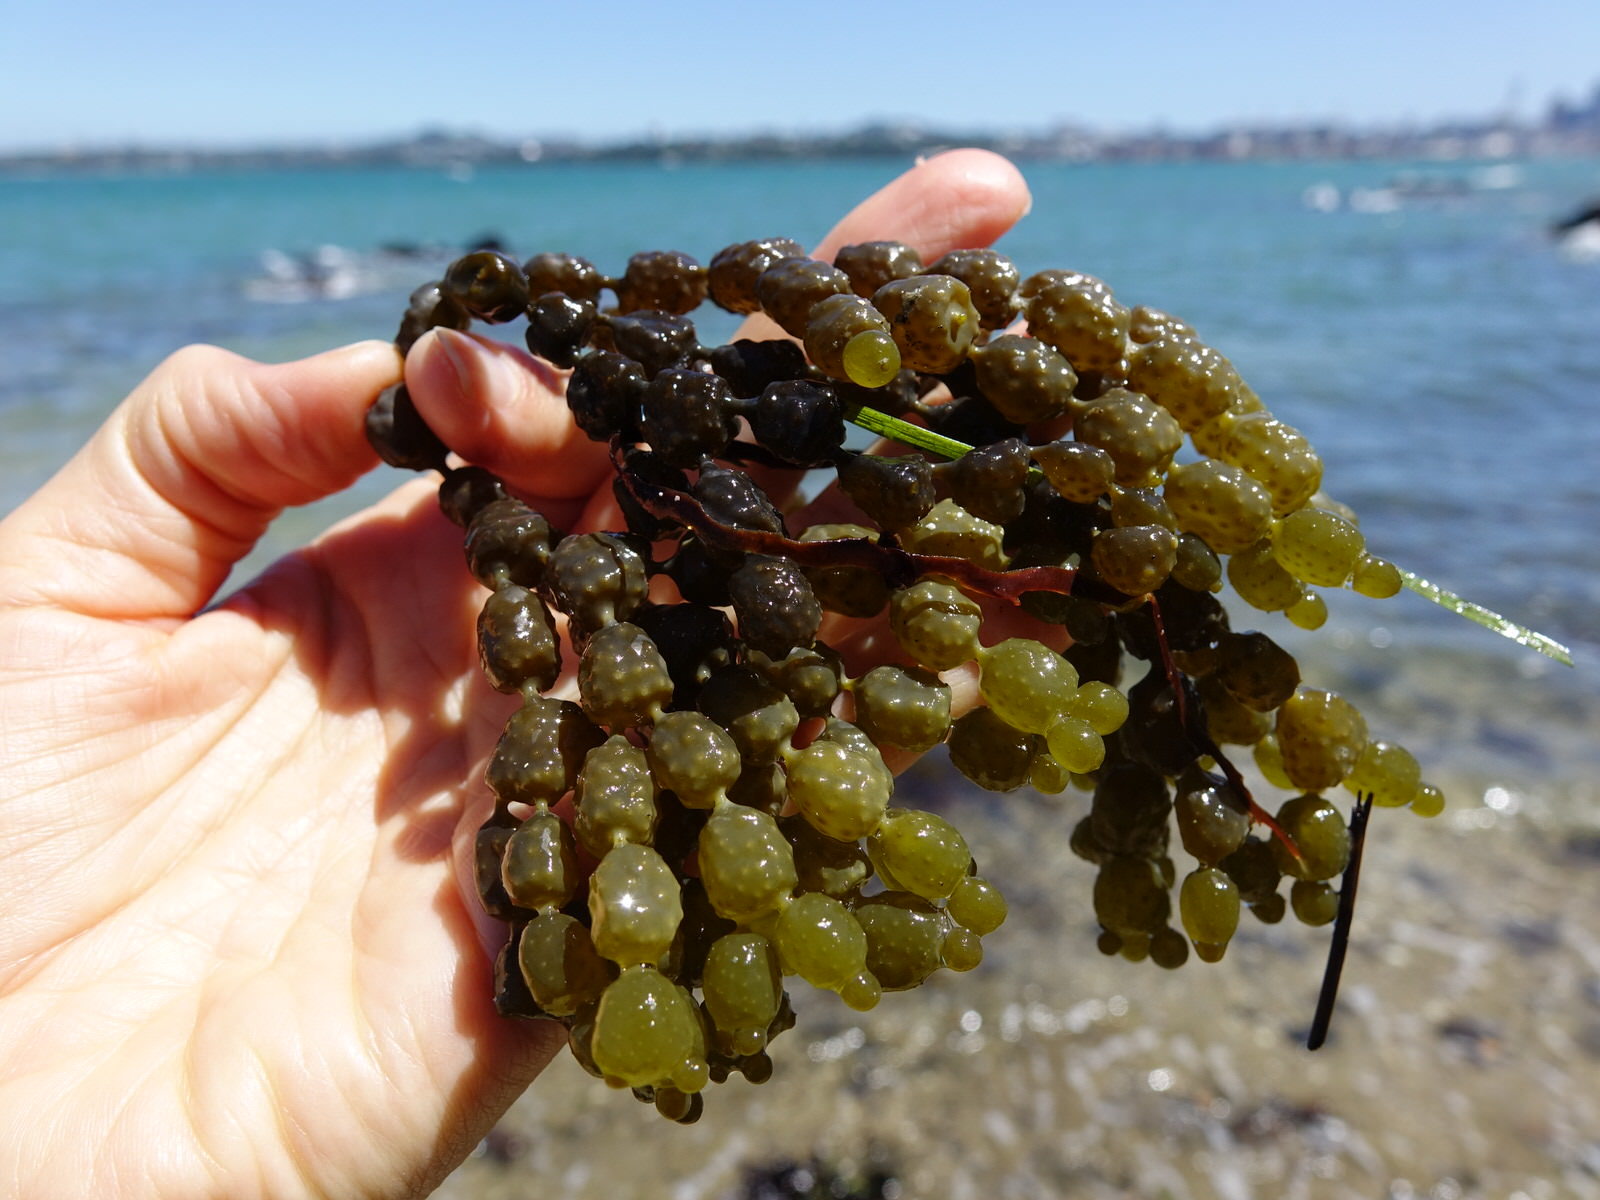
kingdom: Chromista
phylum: Ochrophyta
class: Phaeophyceae
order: Fucales
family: Hormosiraceae
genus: Hormosira
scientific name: Hormosira banksii
